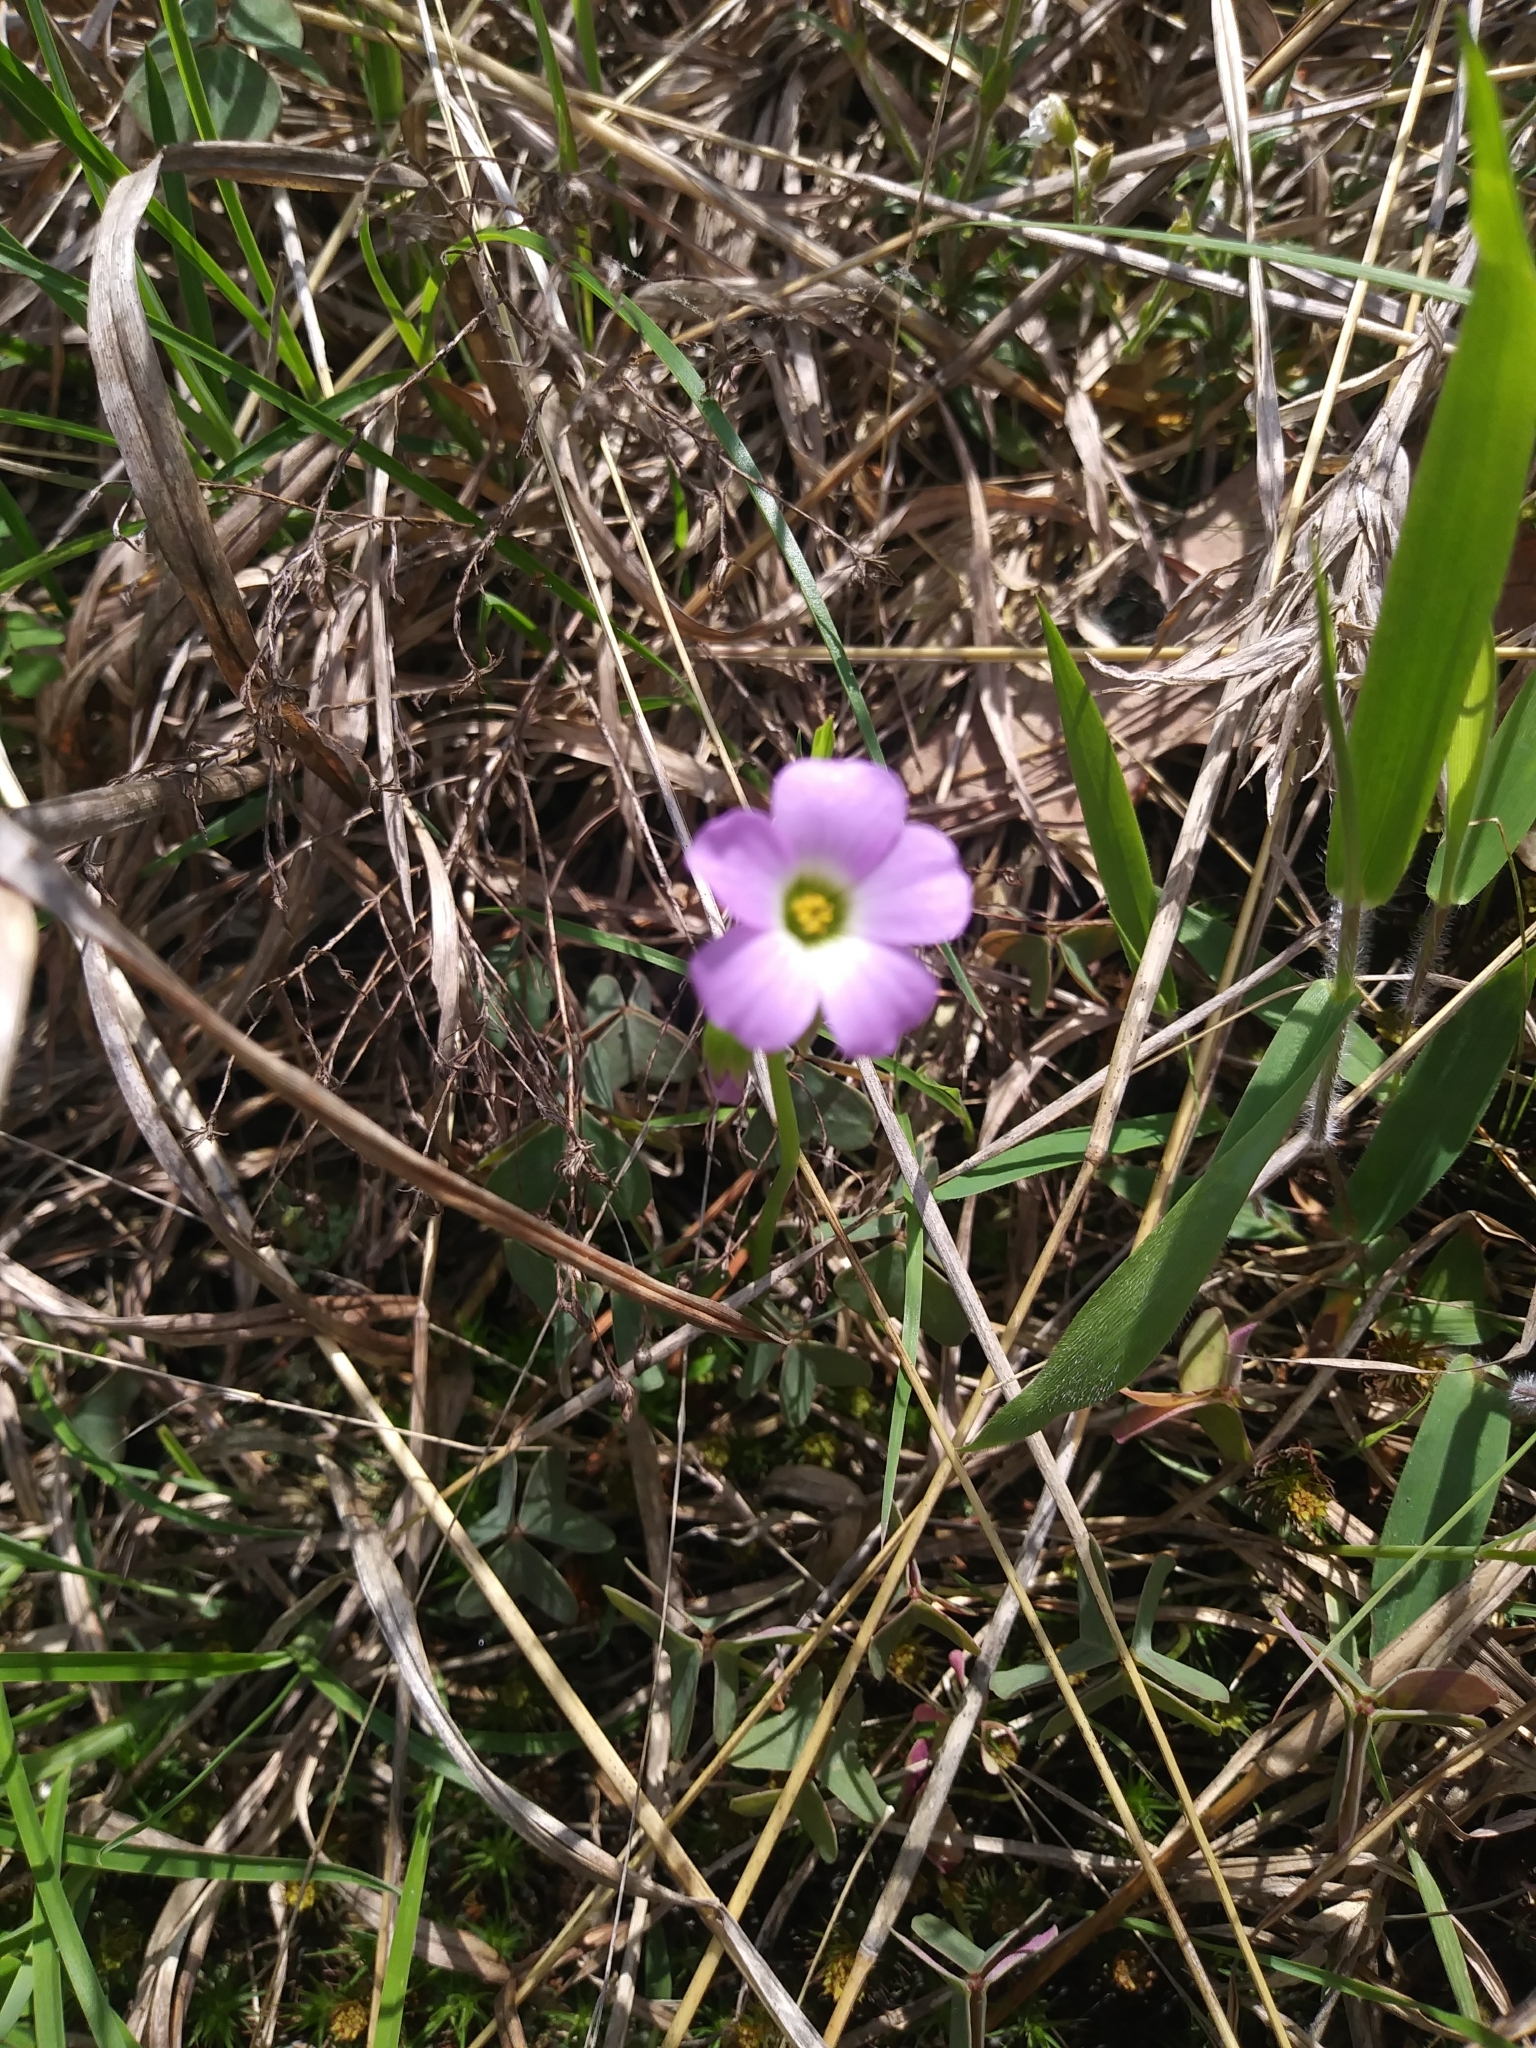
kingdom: Plantae
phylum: Tracheophyta
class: Magnoliopsida
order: Oxalidales
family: Oxalidaceae
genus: Oxalis
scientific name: Oxalis violacea
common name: Violet wood-sorrel
